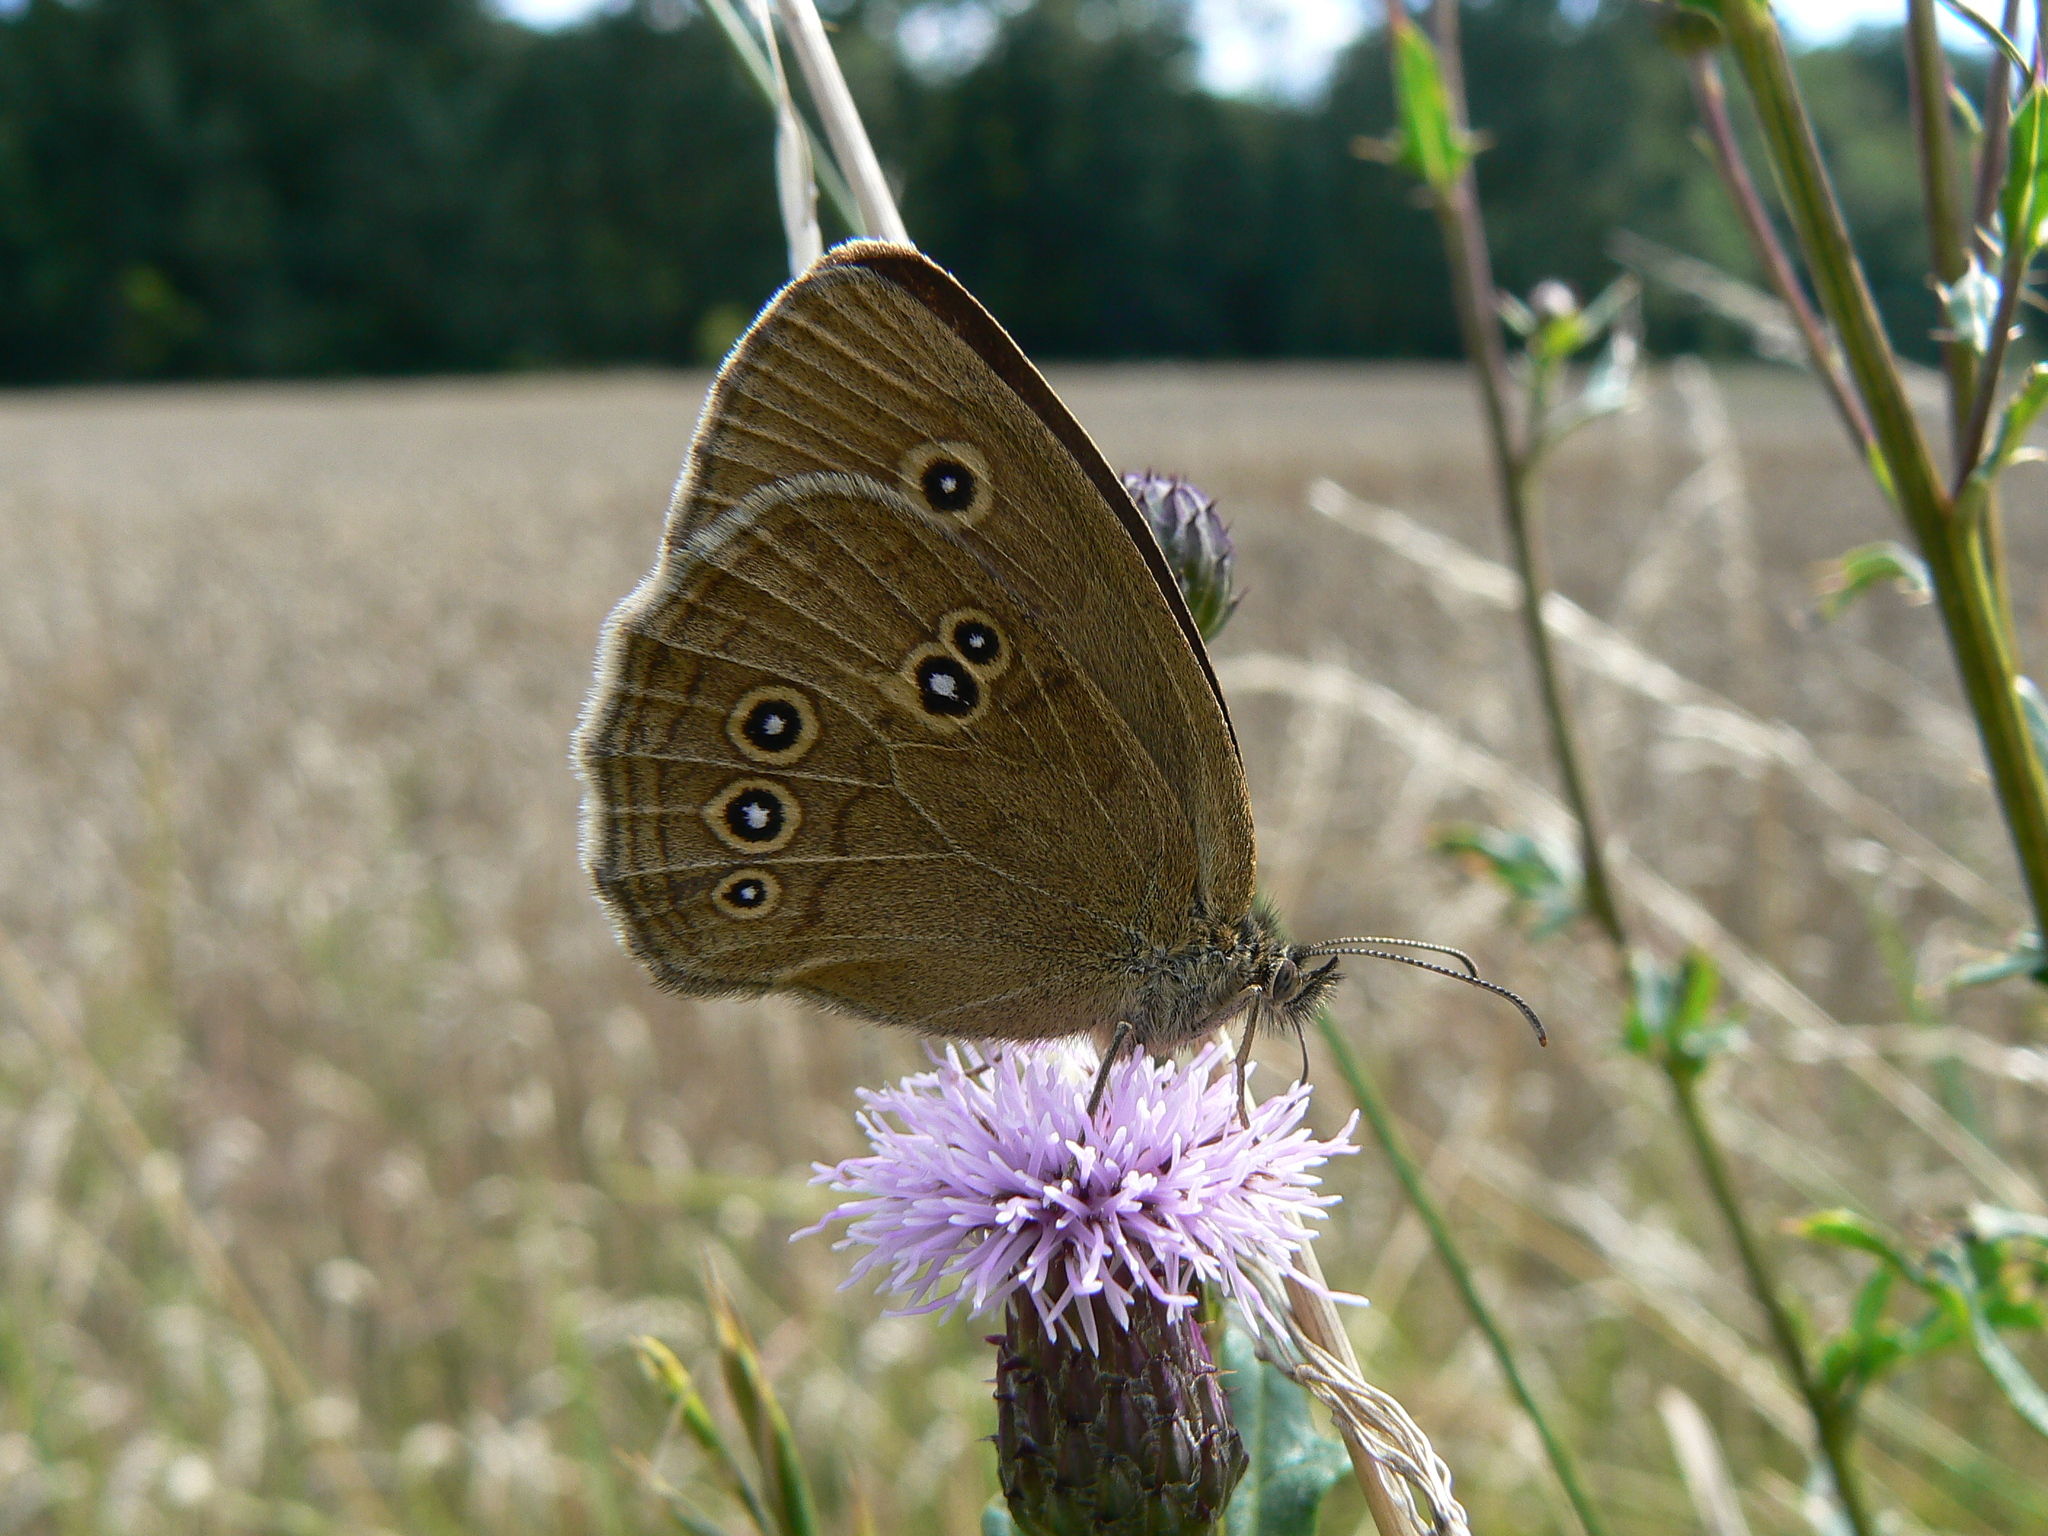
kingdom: Animalia
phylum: Arthropoda
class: Insecta
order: Lepidoptera
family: Nymphalidae
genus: Aphantopus
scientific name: Aphantopus hyperantus
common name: Ringlet
